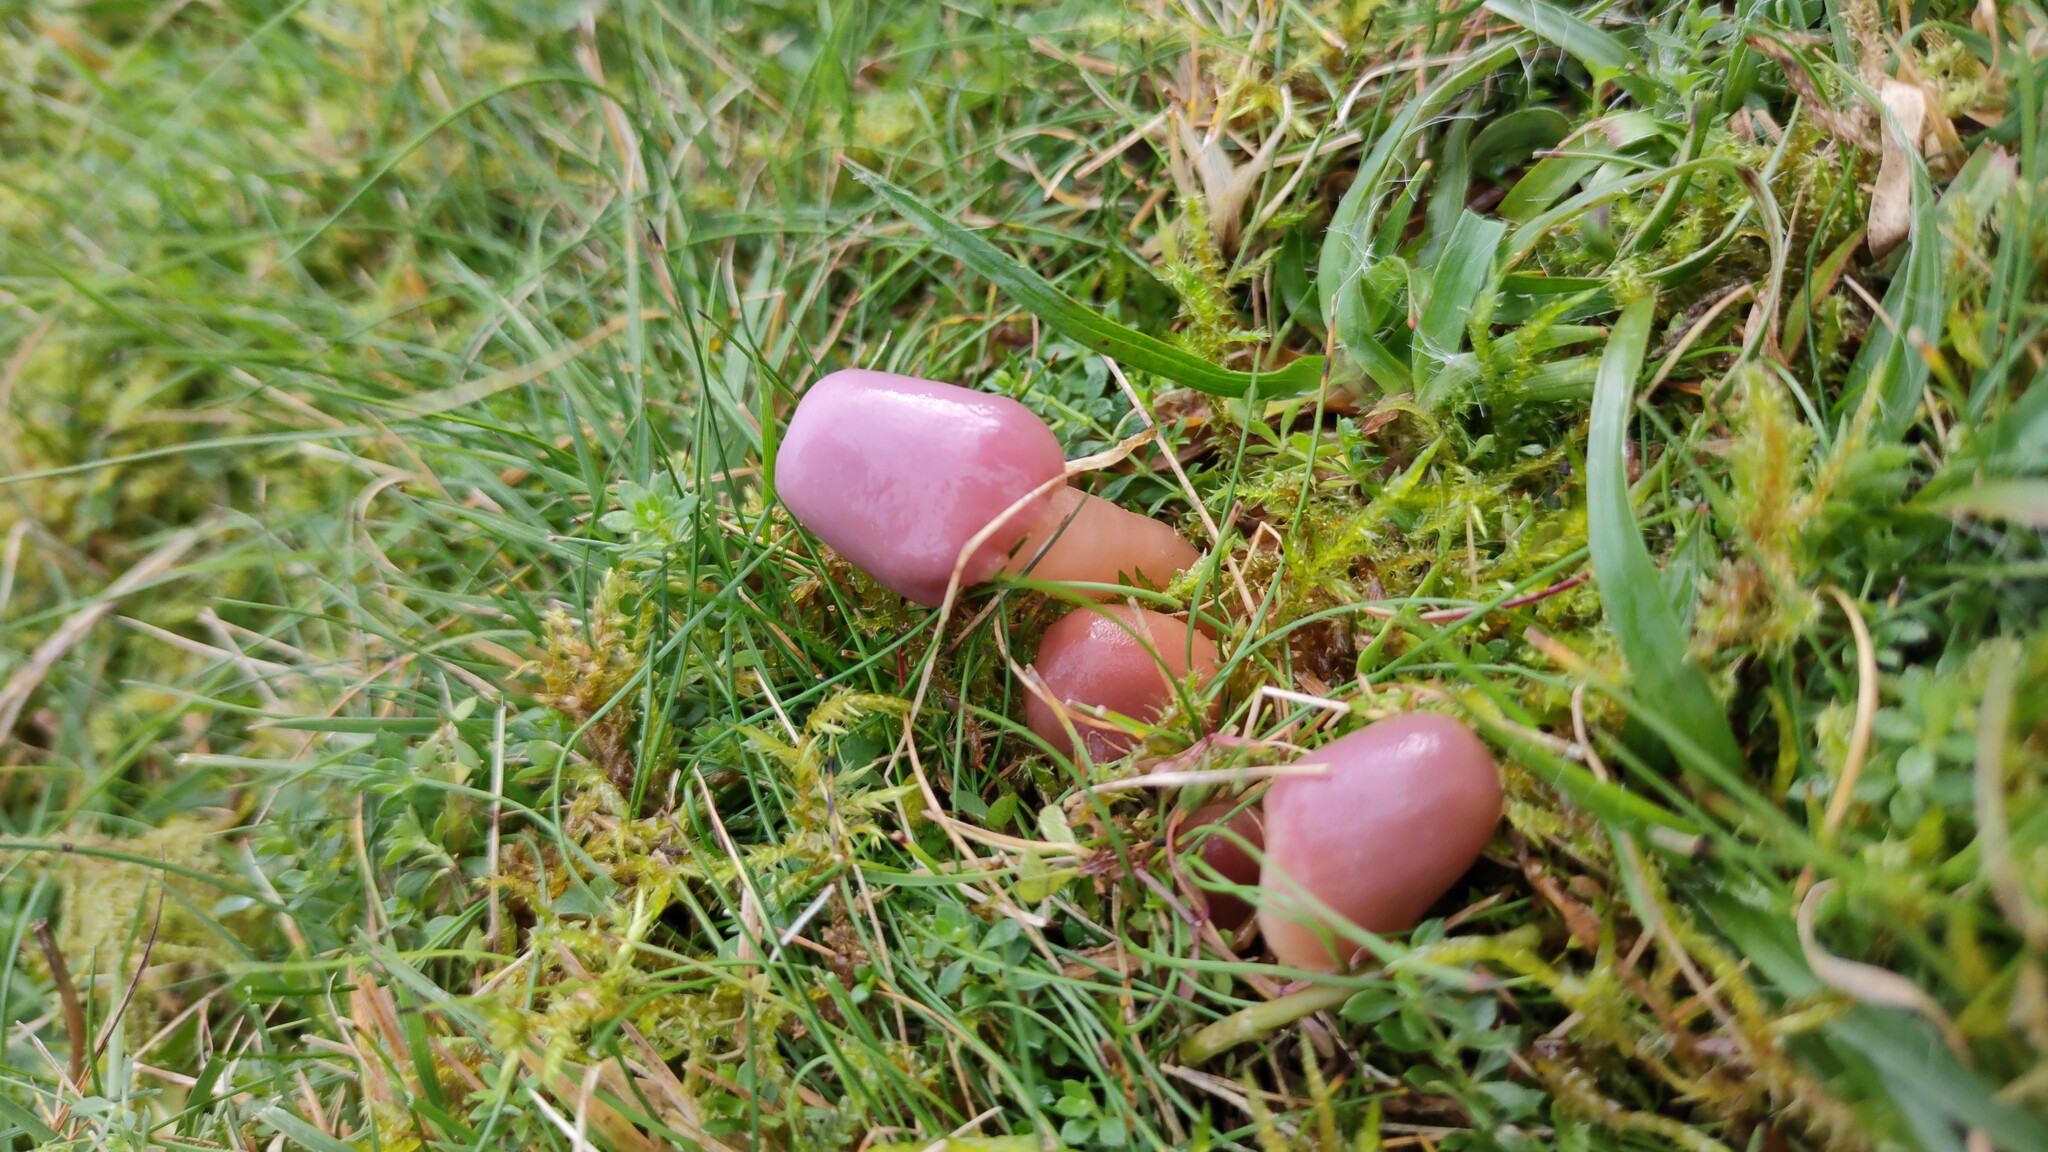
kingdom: Fungi
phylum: Basidiomycota
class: Agaricomycetes
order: Agaricales
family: Hygrophoraceae
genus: Gliophorus
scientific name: Gliophorus reginae
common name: Jubilee waxcap
